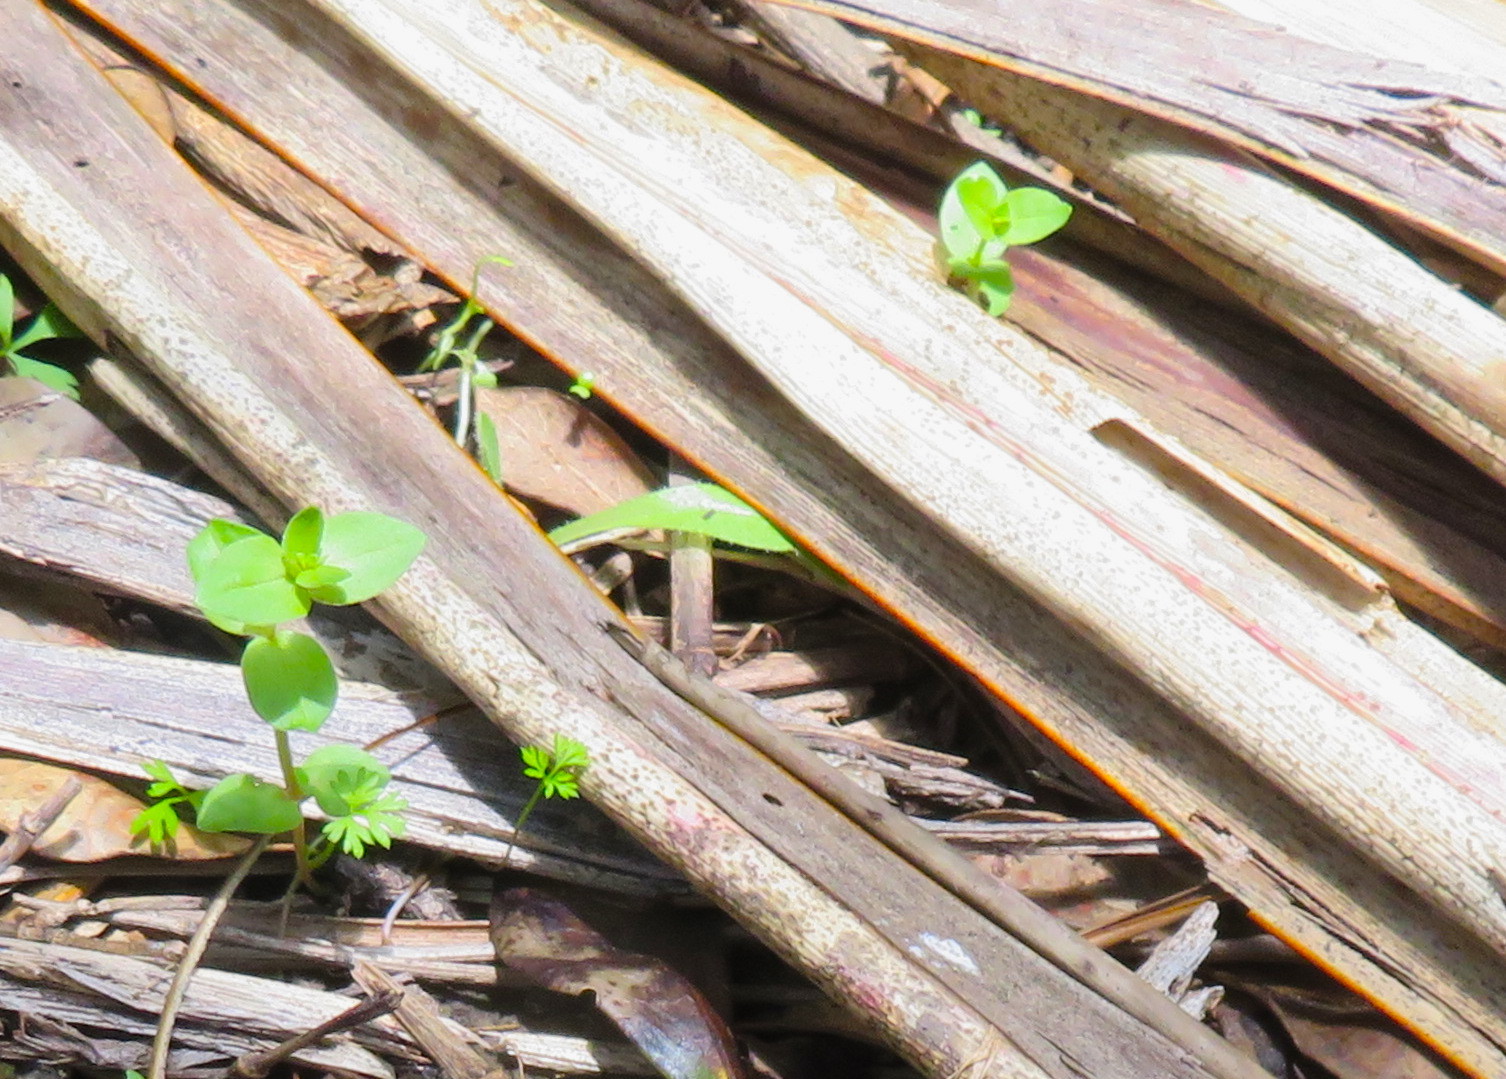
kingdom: Plantae
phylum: Tracheophyta
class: Magnoliopsida
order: Ericales
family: Primulaceae
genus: Lysimachia
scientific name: Lysimachia arvensis
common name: Scarlet pimpernel
